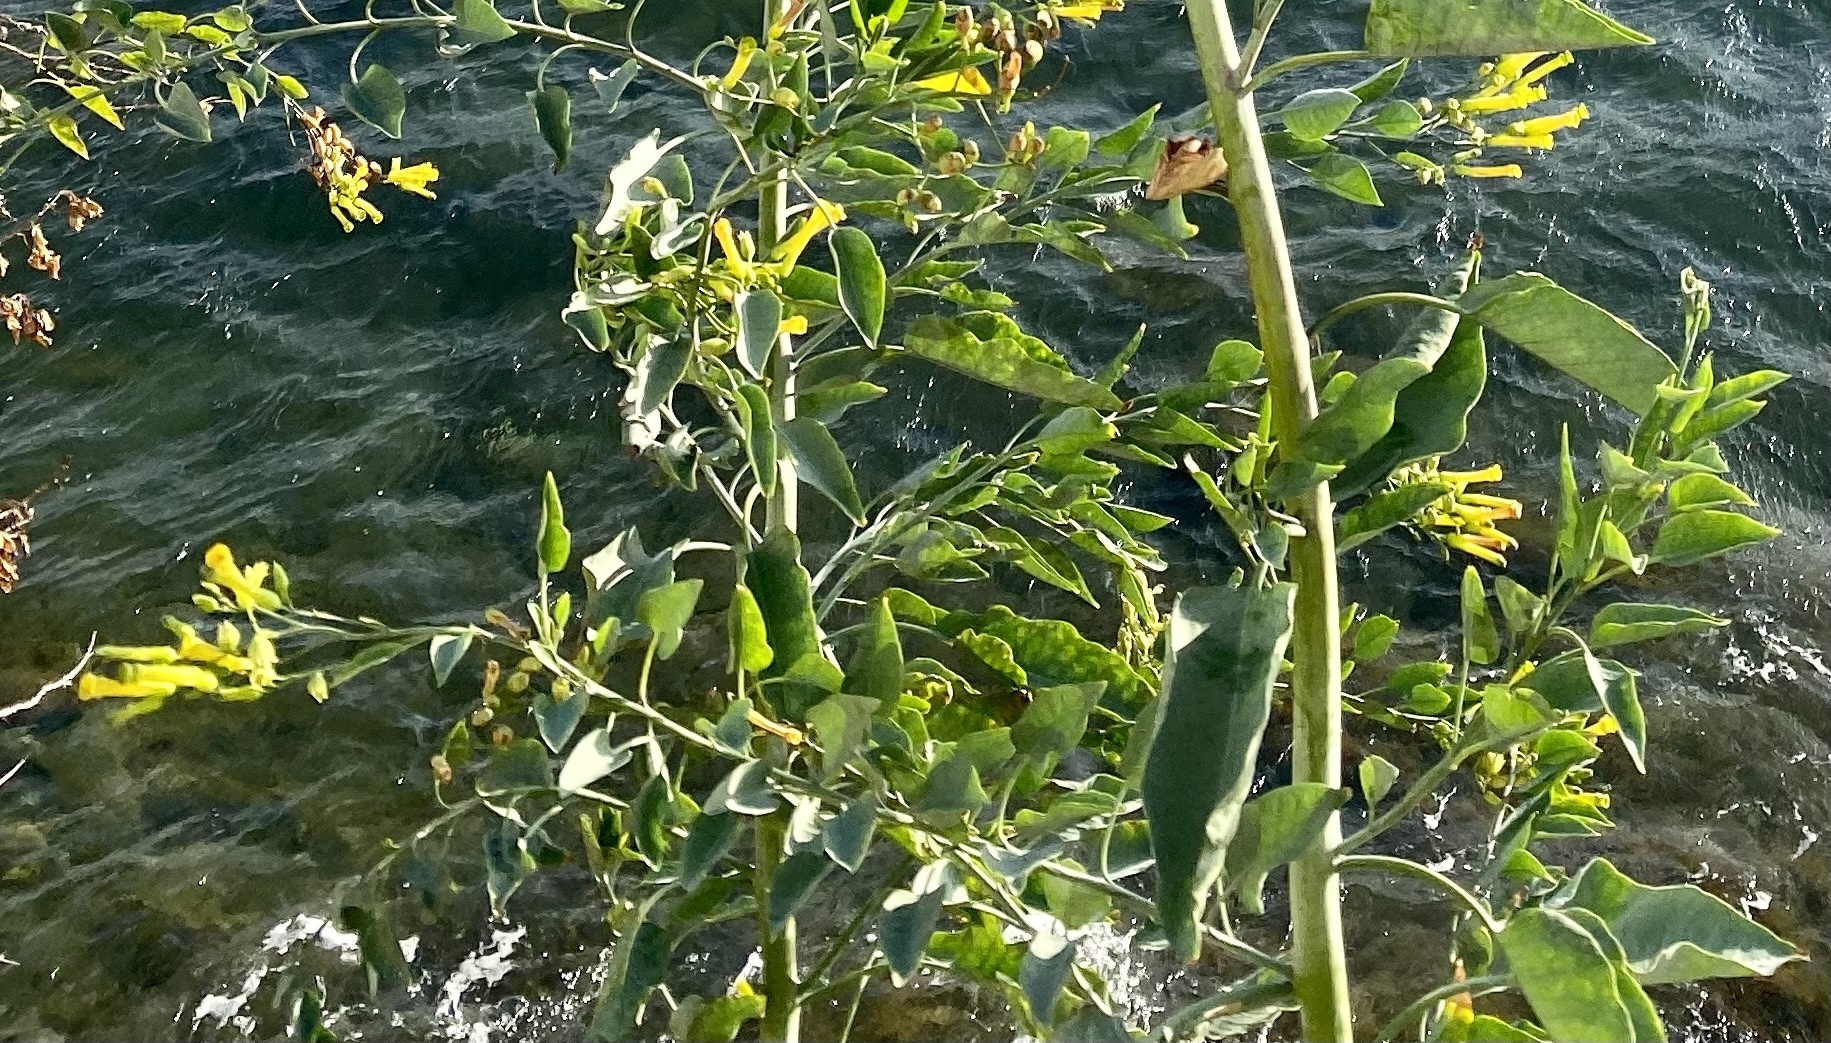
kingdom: Plantae
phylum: Tracheophyta
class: Magnoliopsida
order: Solanales
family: Solanaceae
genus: Nicotiana
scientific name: Nicotiana glauca
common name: Tree tobacco
